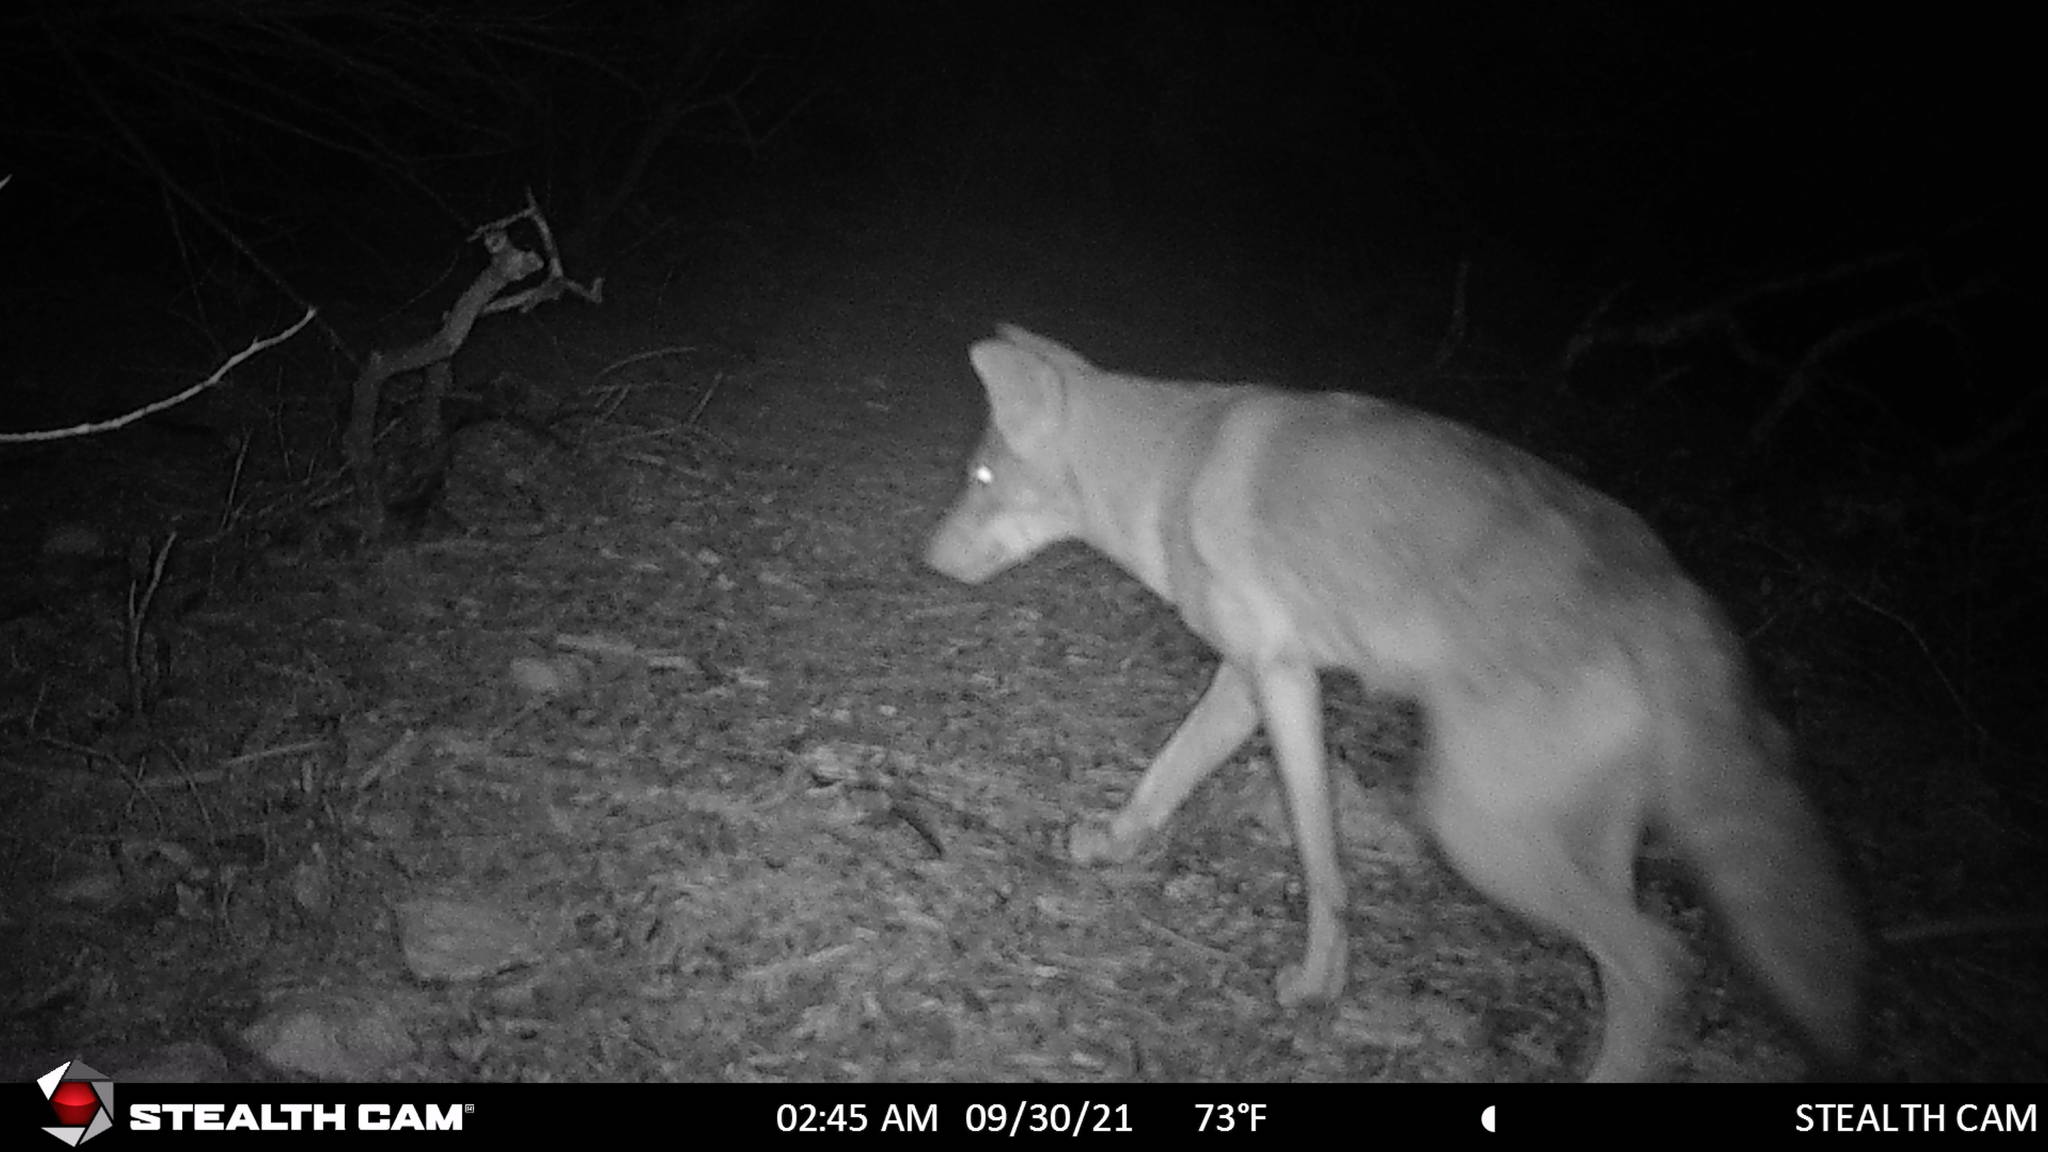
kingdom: Animalia
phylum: Chordata
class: Mammalia
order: Carnivora
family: Canidae
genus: Canis
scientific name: Canis latrans
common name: Coyote
